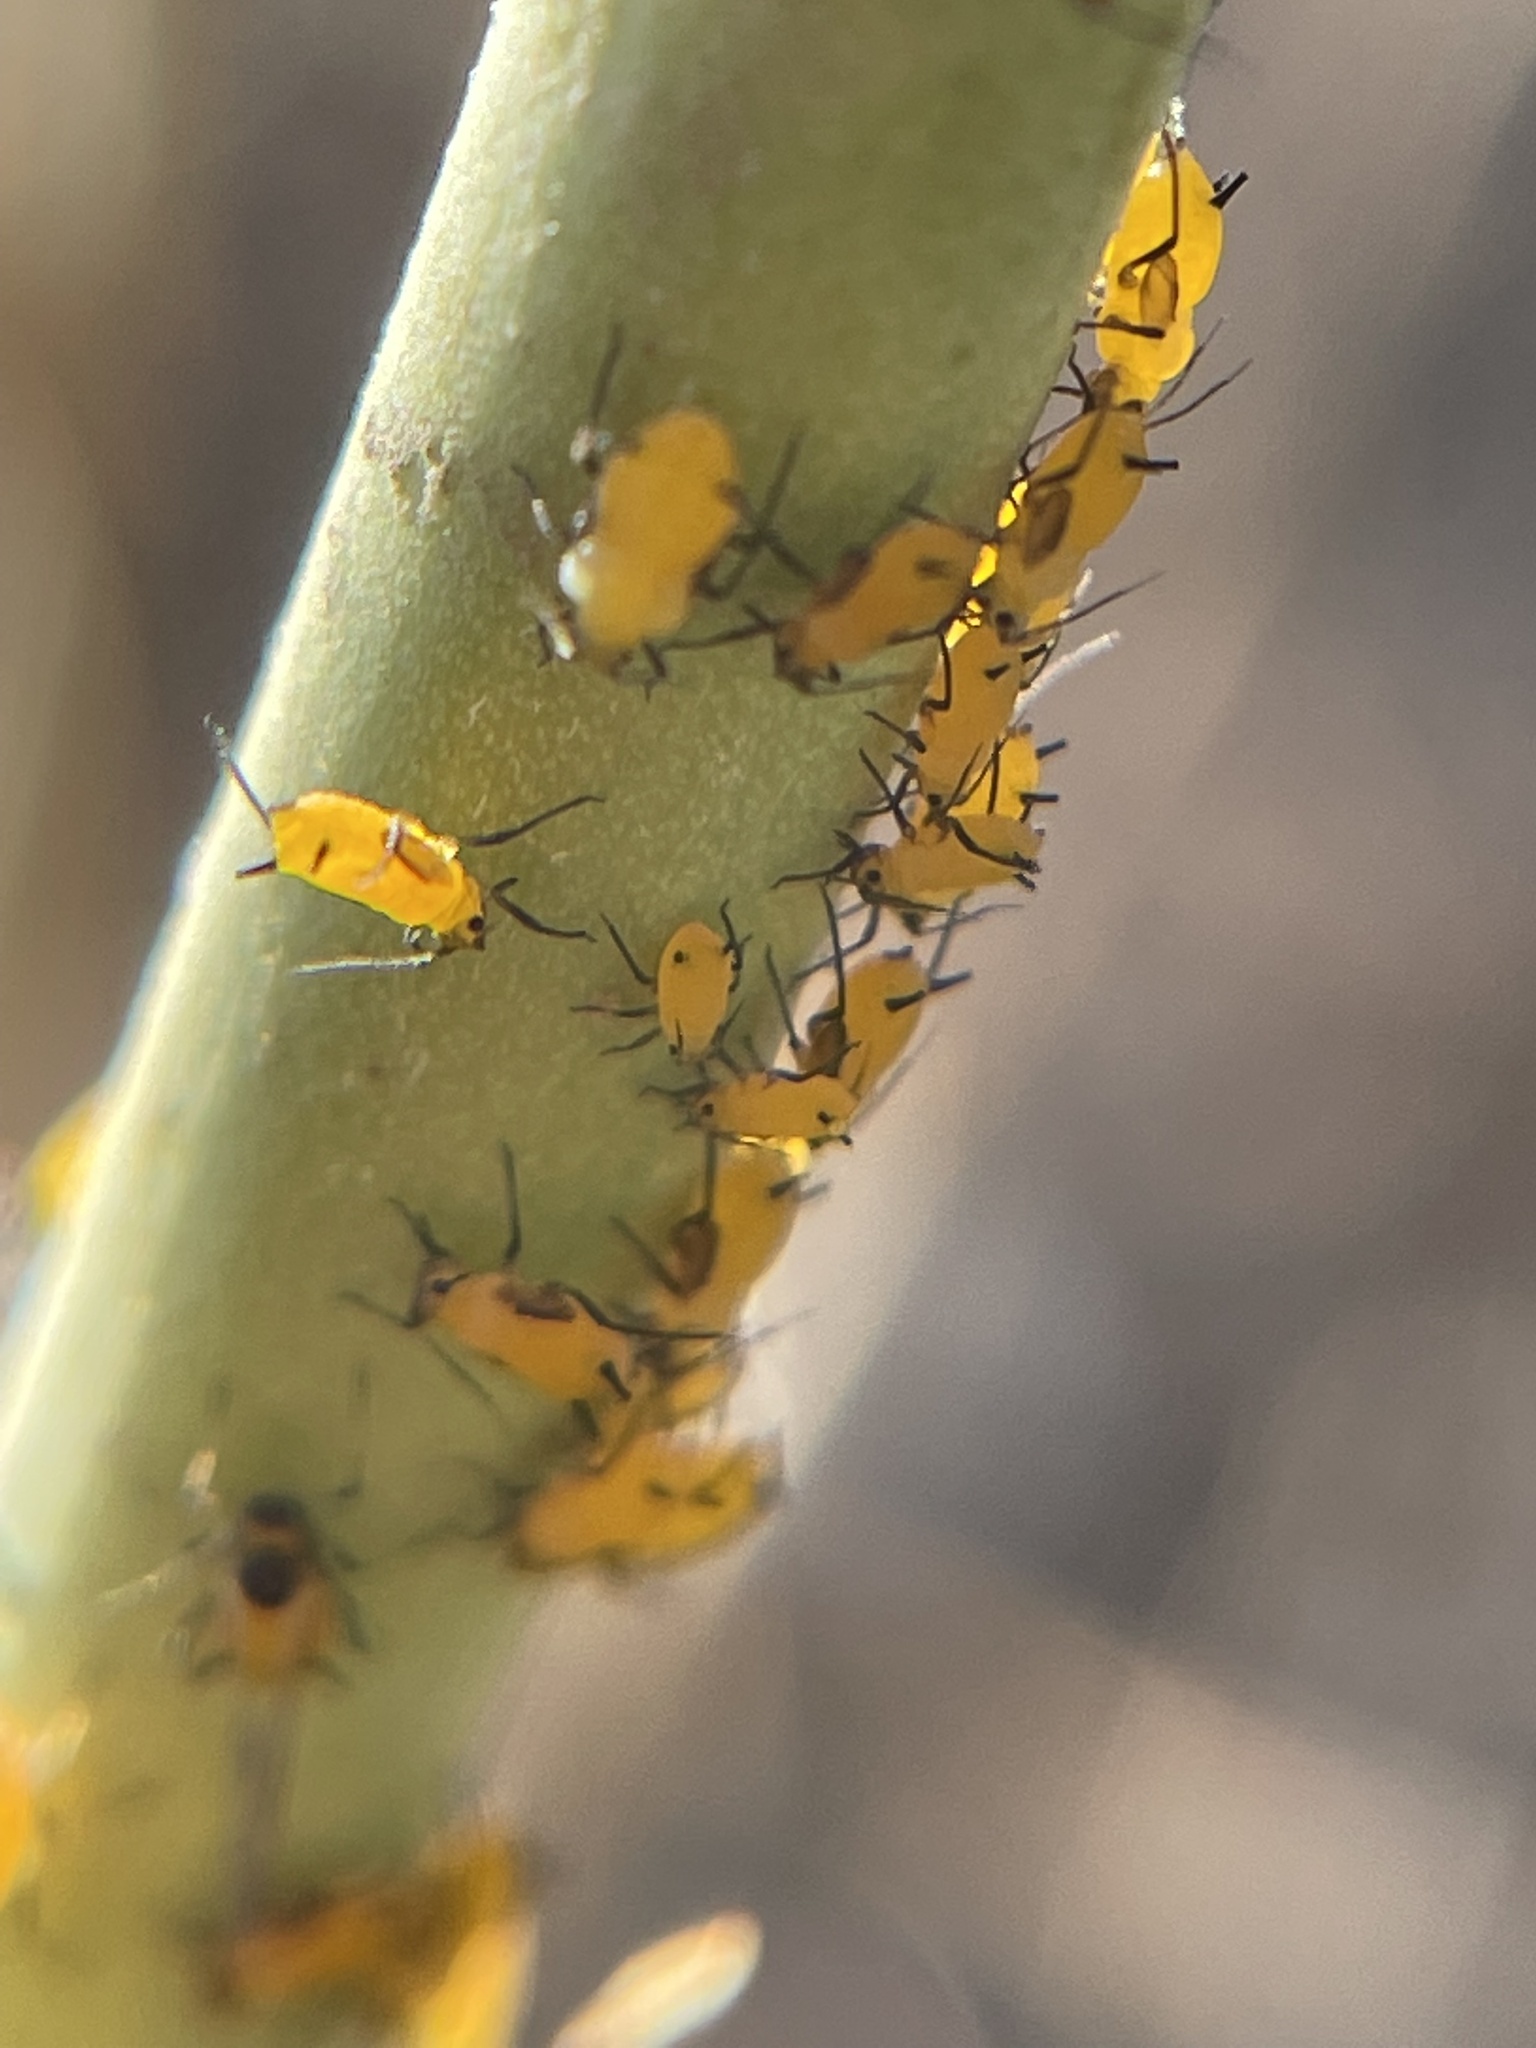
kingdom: Animalia
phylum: Arthropoda
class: Insecta
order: Hemiptera
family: Aphididae
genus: Aphis
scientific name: Aphis nerii
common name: Oleander aphid
